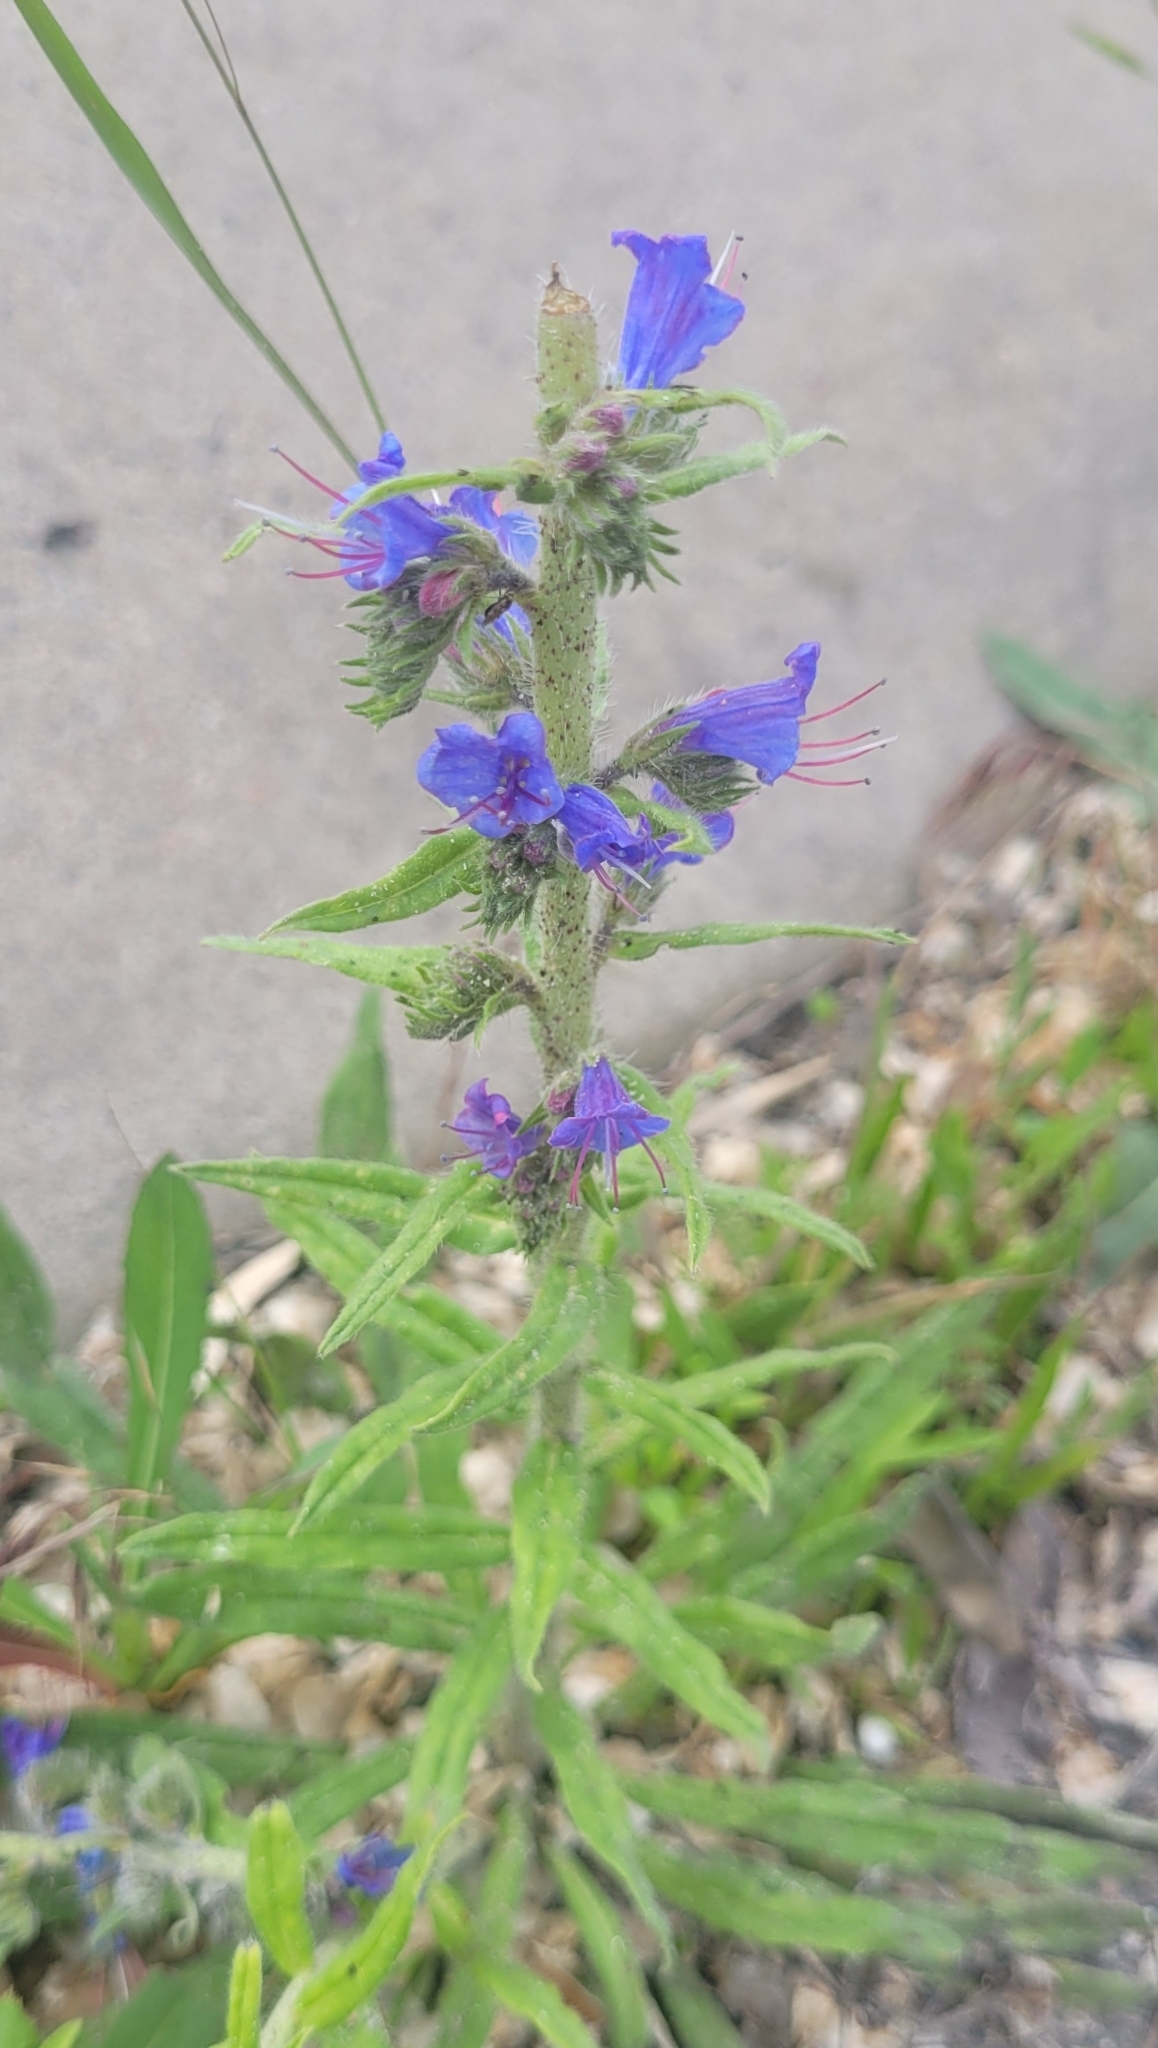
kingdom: Plantae
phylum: Tracheophyta
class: Magnoliopsida
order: Boraginales
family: Boraginaceae
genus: Echium
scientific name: Echium vulgare
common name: Common viper's bugloss
